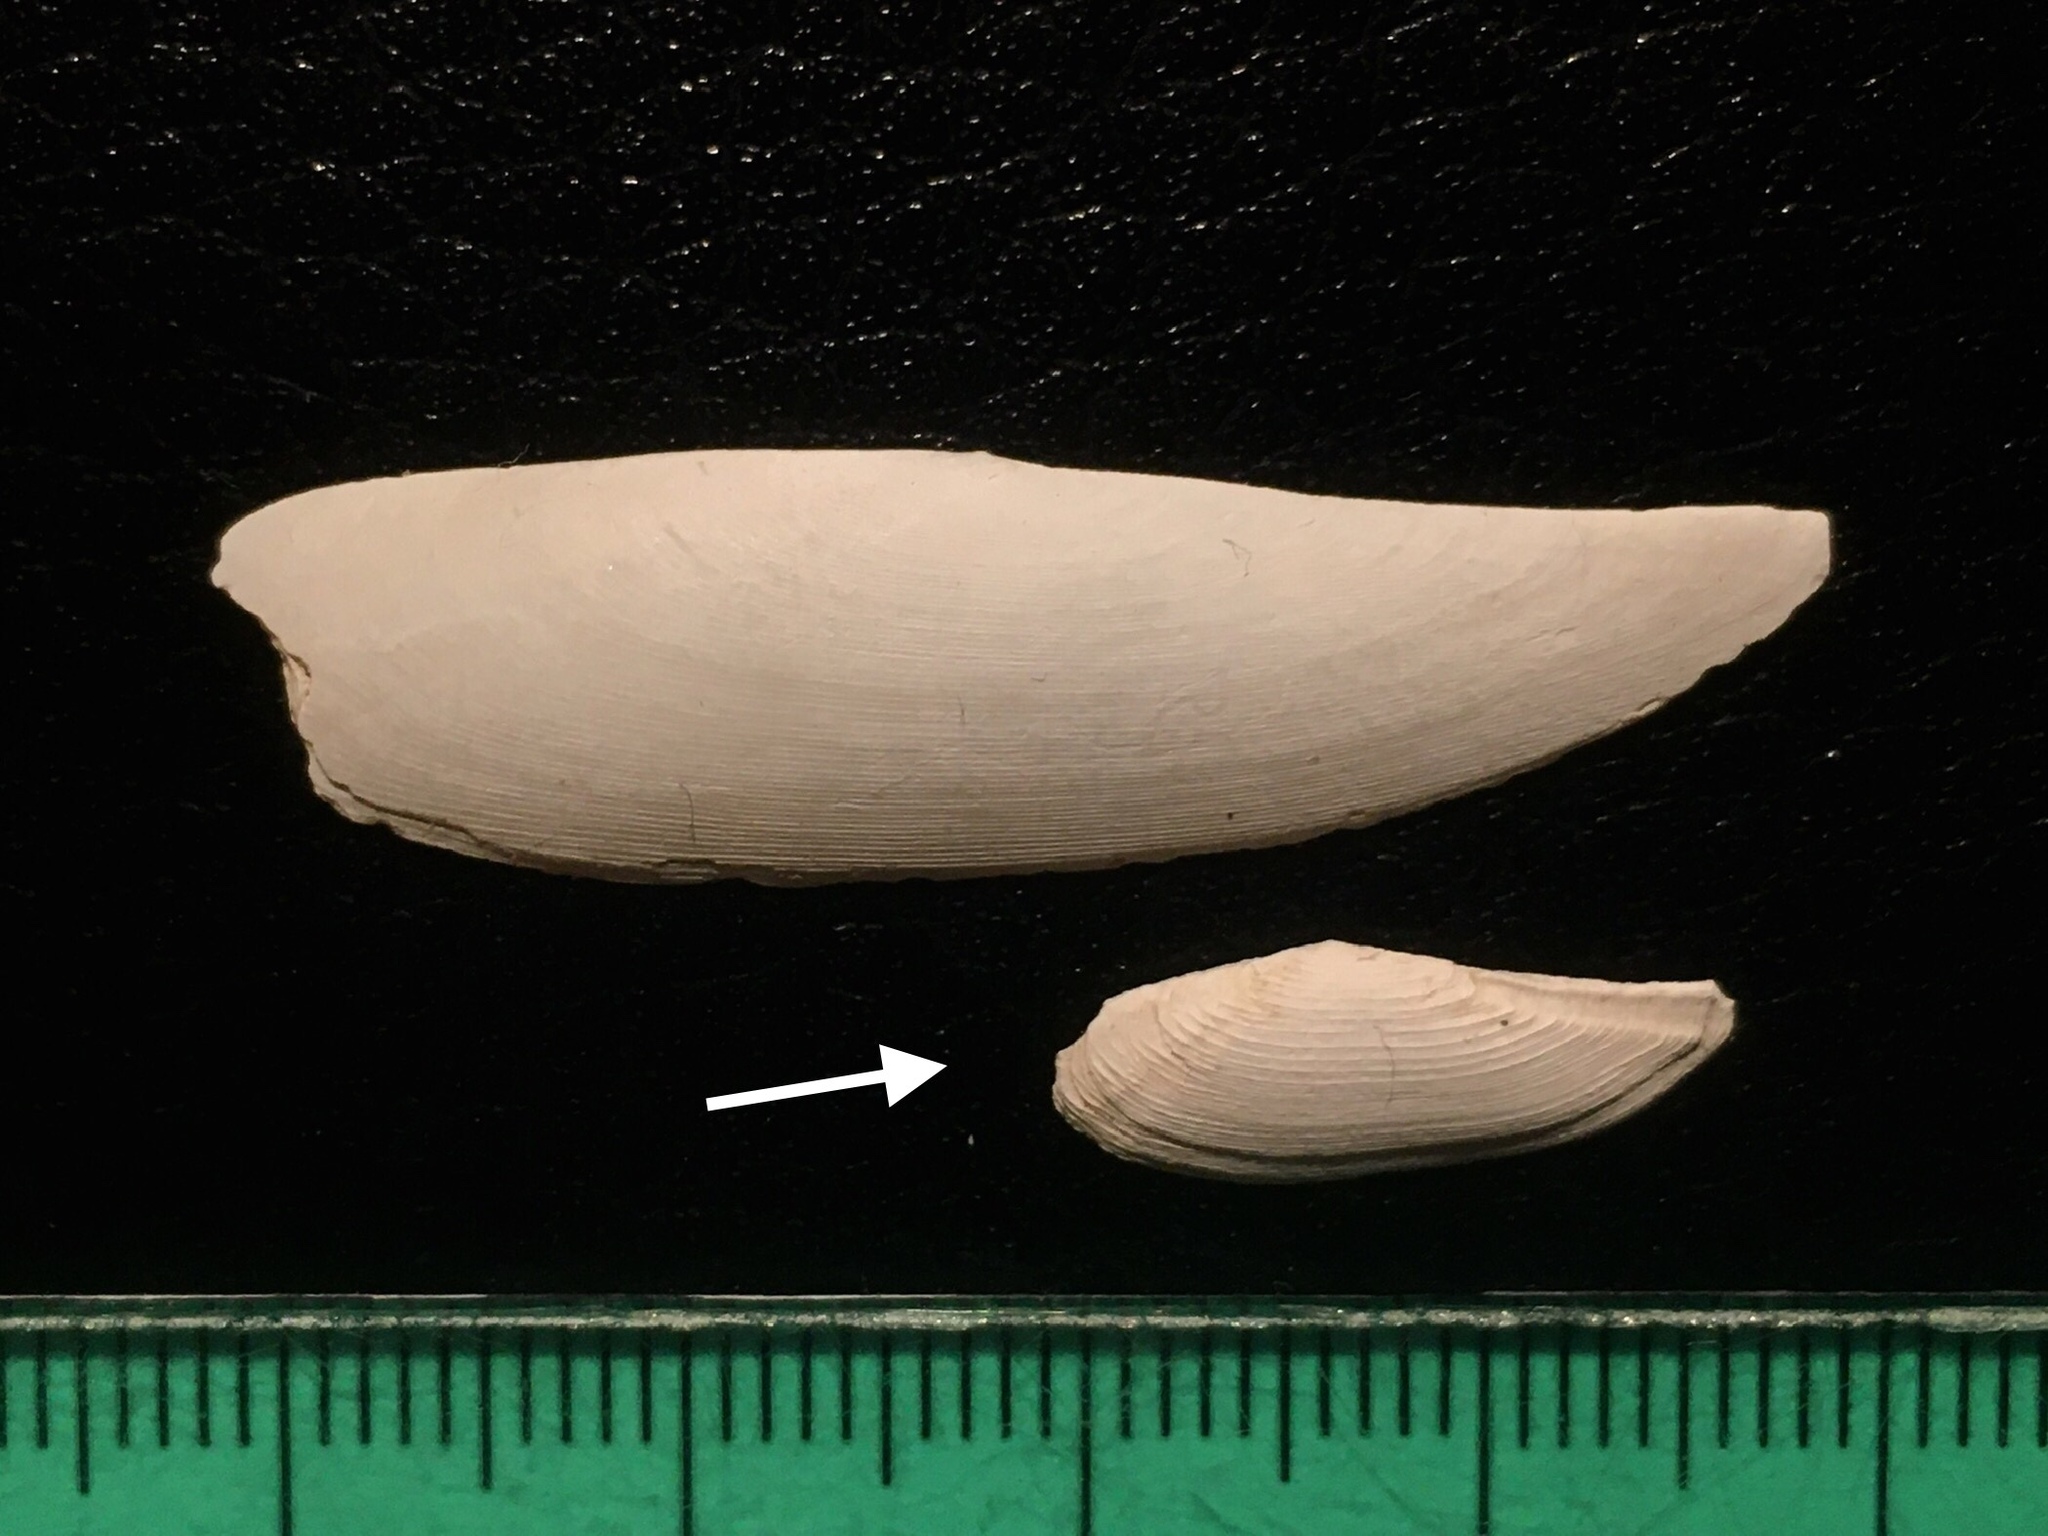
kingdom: Animalia
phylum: Mollusca
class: Bivalvia
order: Nuculanida
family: Nuculanidae
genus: Adrana
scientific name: Adrana patagonica
